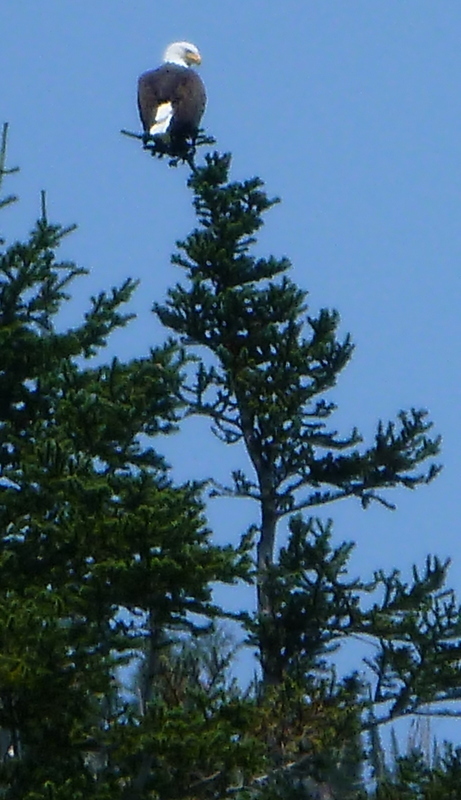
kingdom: Animalia
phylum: Chordata
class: Aves
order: Accipitriformes
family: Accipitridae
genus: Haliaeetus
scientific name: Haliaeetus leucocephalus
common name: Bald eagle
